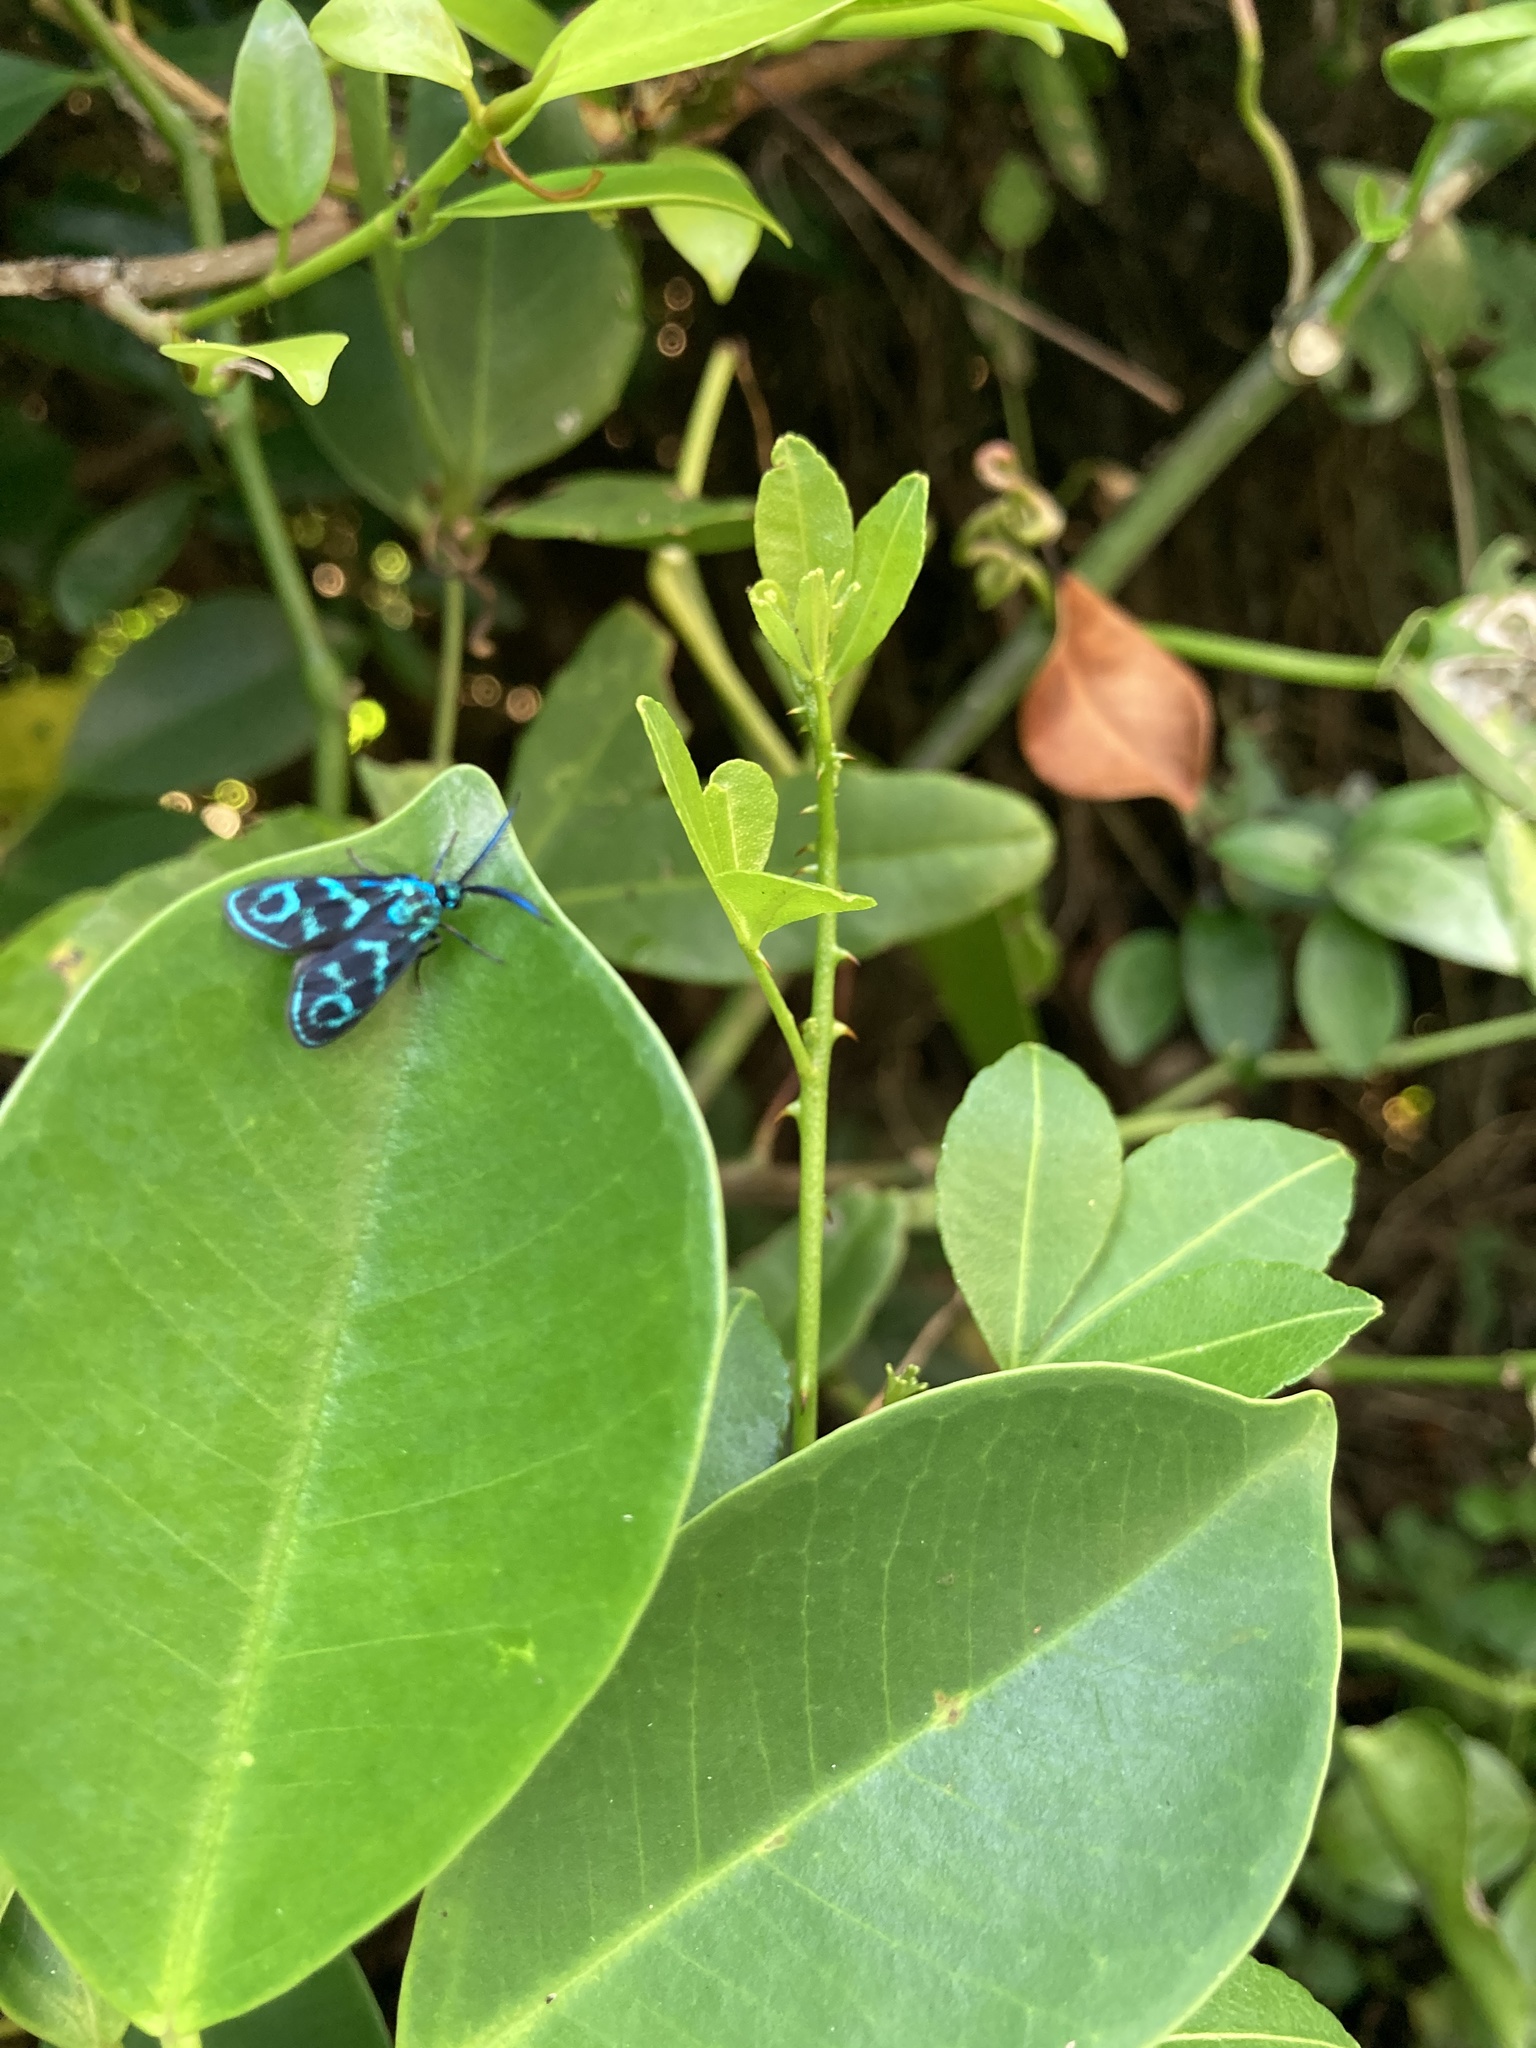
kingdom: Animalia
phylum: Arthropoda
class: Insecta
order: Lepidoptera
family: Zygaenidae
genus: Clelea
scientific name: Clelea nigroviridis
